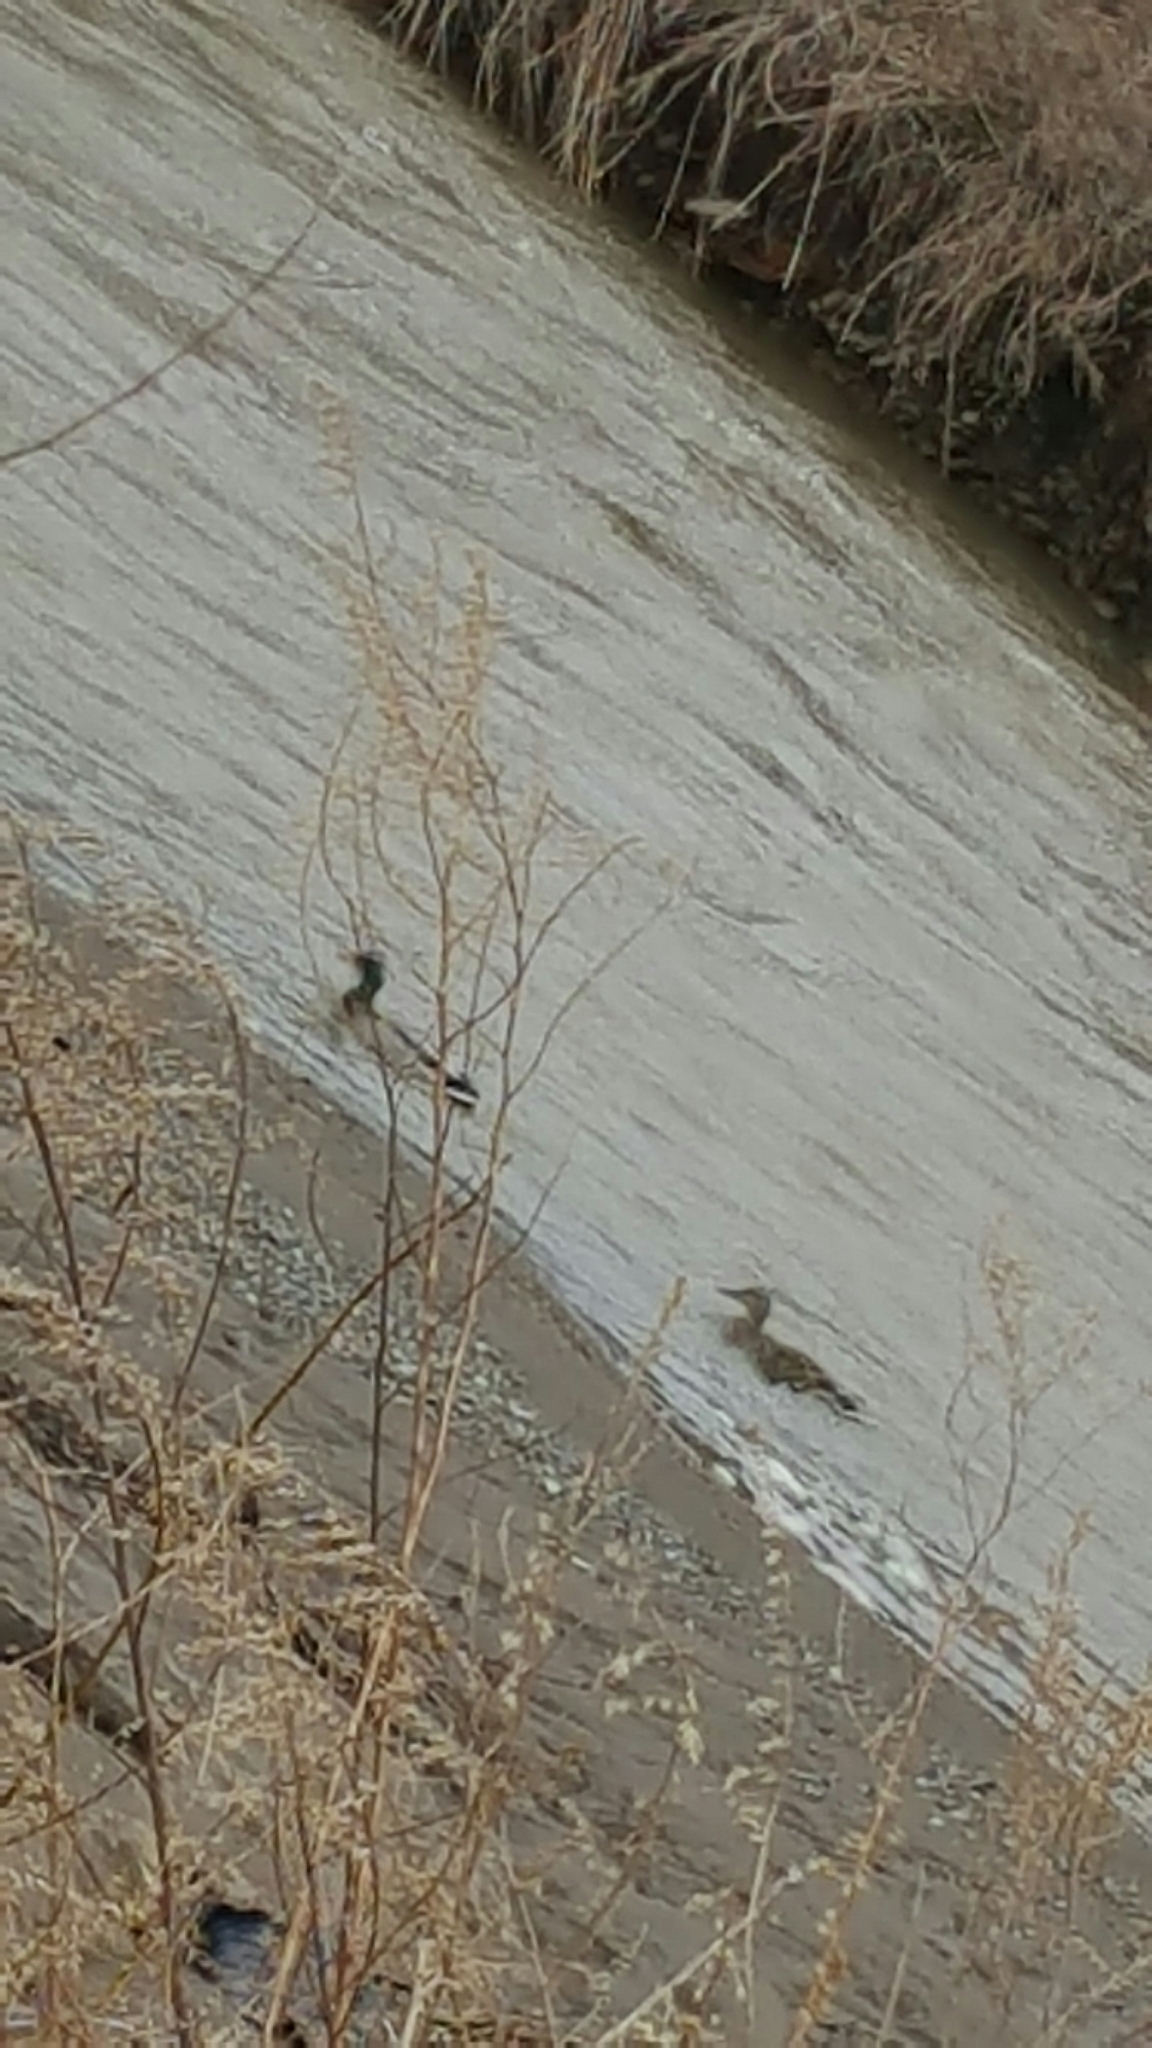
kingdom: Animalia
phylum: Chordata
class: Aves
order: Anseriformes
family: Anatidae
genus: Anas
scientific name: Anas platyrhynchos
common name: Mallard
